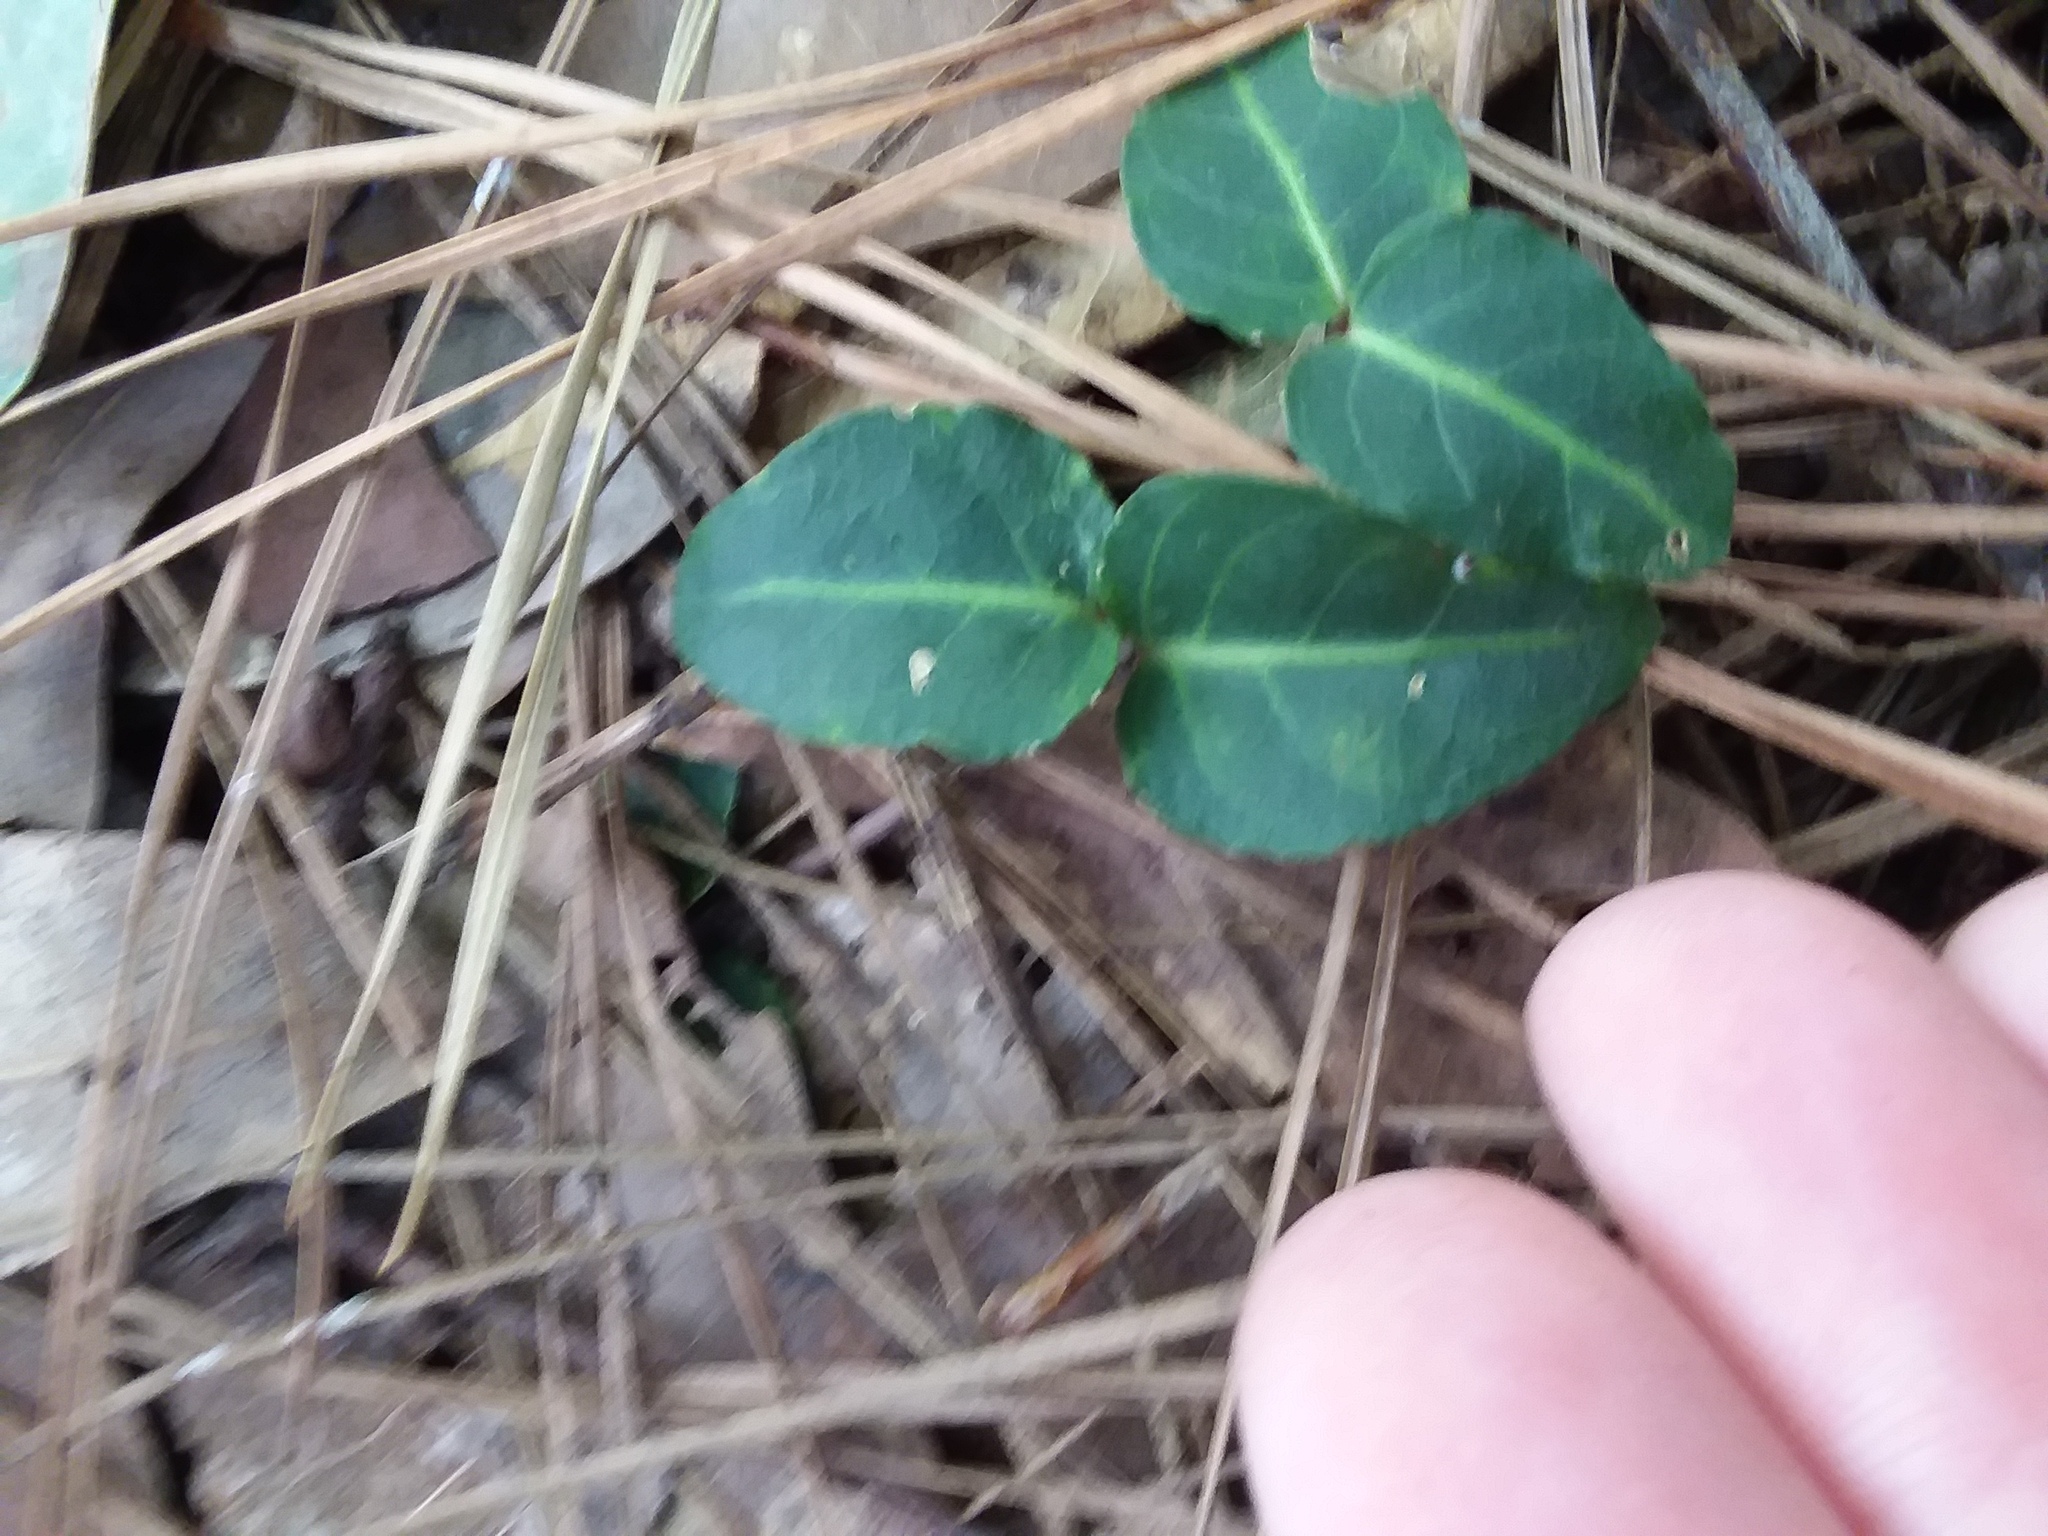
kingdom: Plantae
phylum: Tracheophyta
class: Magnoliopsida
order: Gentianales
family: Rubiaceae
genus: Mitchella
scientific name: Mitchella repens
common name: Partridge-berry
